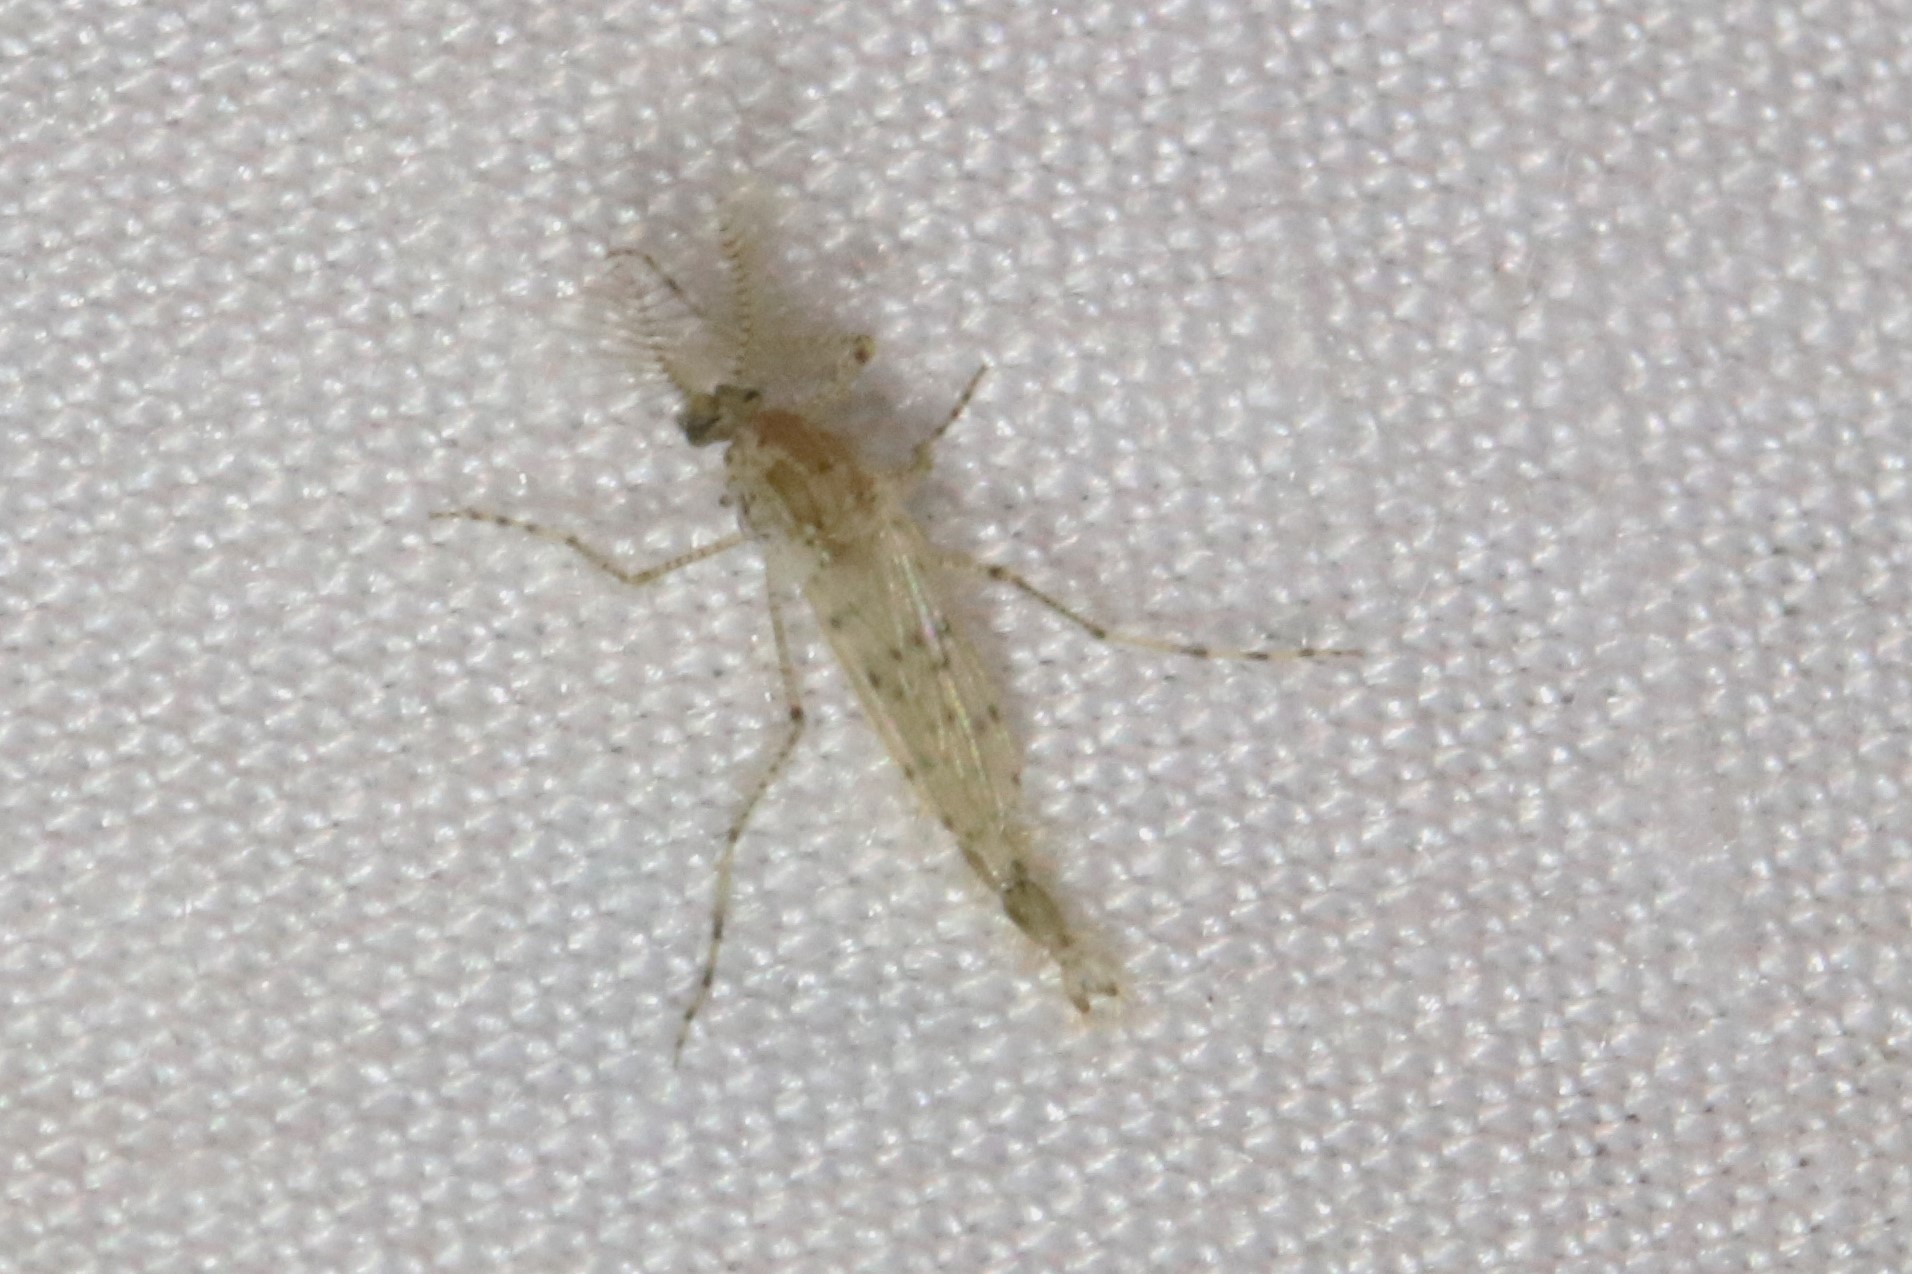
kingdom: Animalia
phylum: Arthropoda
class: Insecta
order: Diptera
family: Chaoboridae
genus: Chaoborus
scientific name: Chaoborus punctipennis
